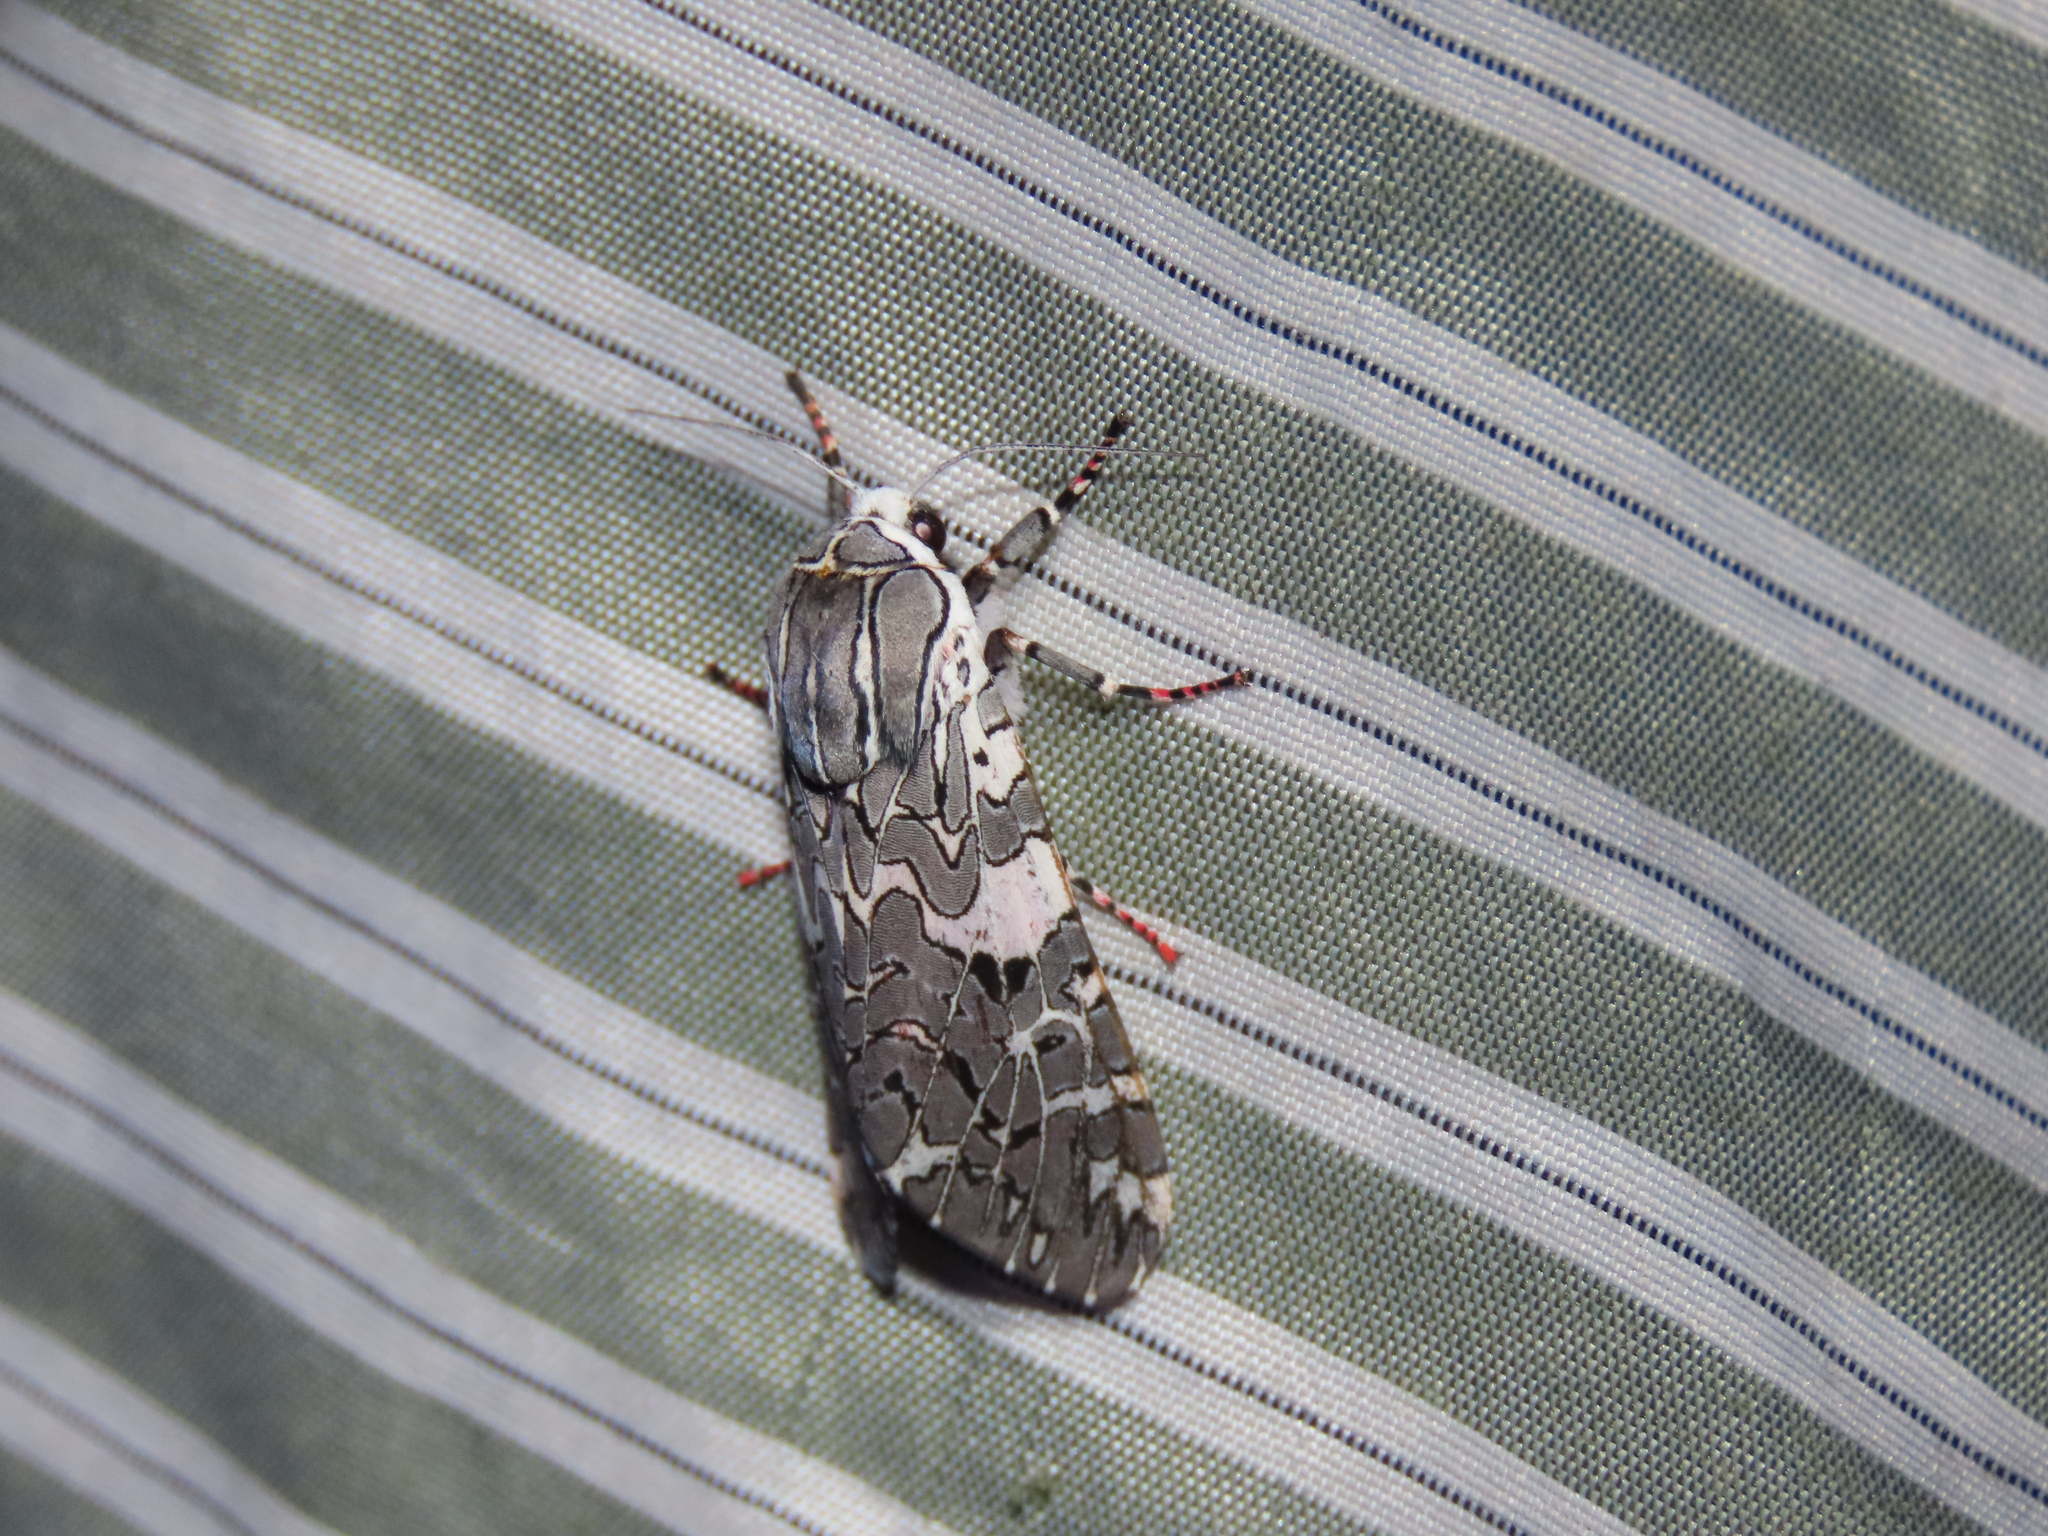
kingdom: Animalia
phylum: Arthropoda
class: Insecta
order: Lepidoptera
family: Erebidae
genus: Arachnis
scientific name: Arachnis picta
